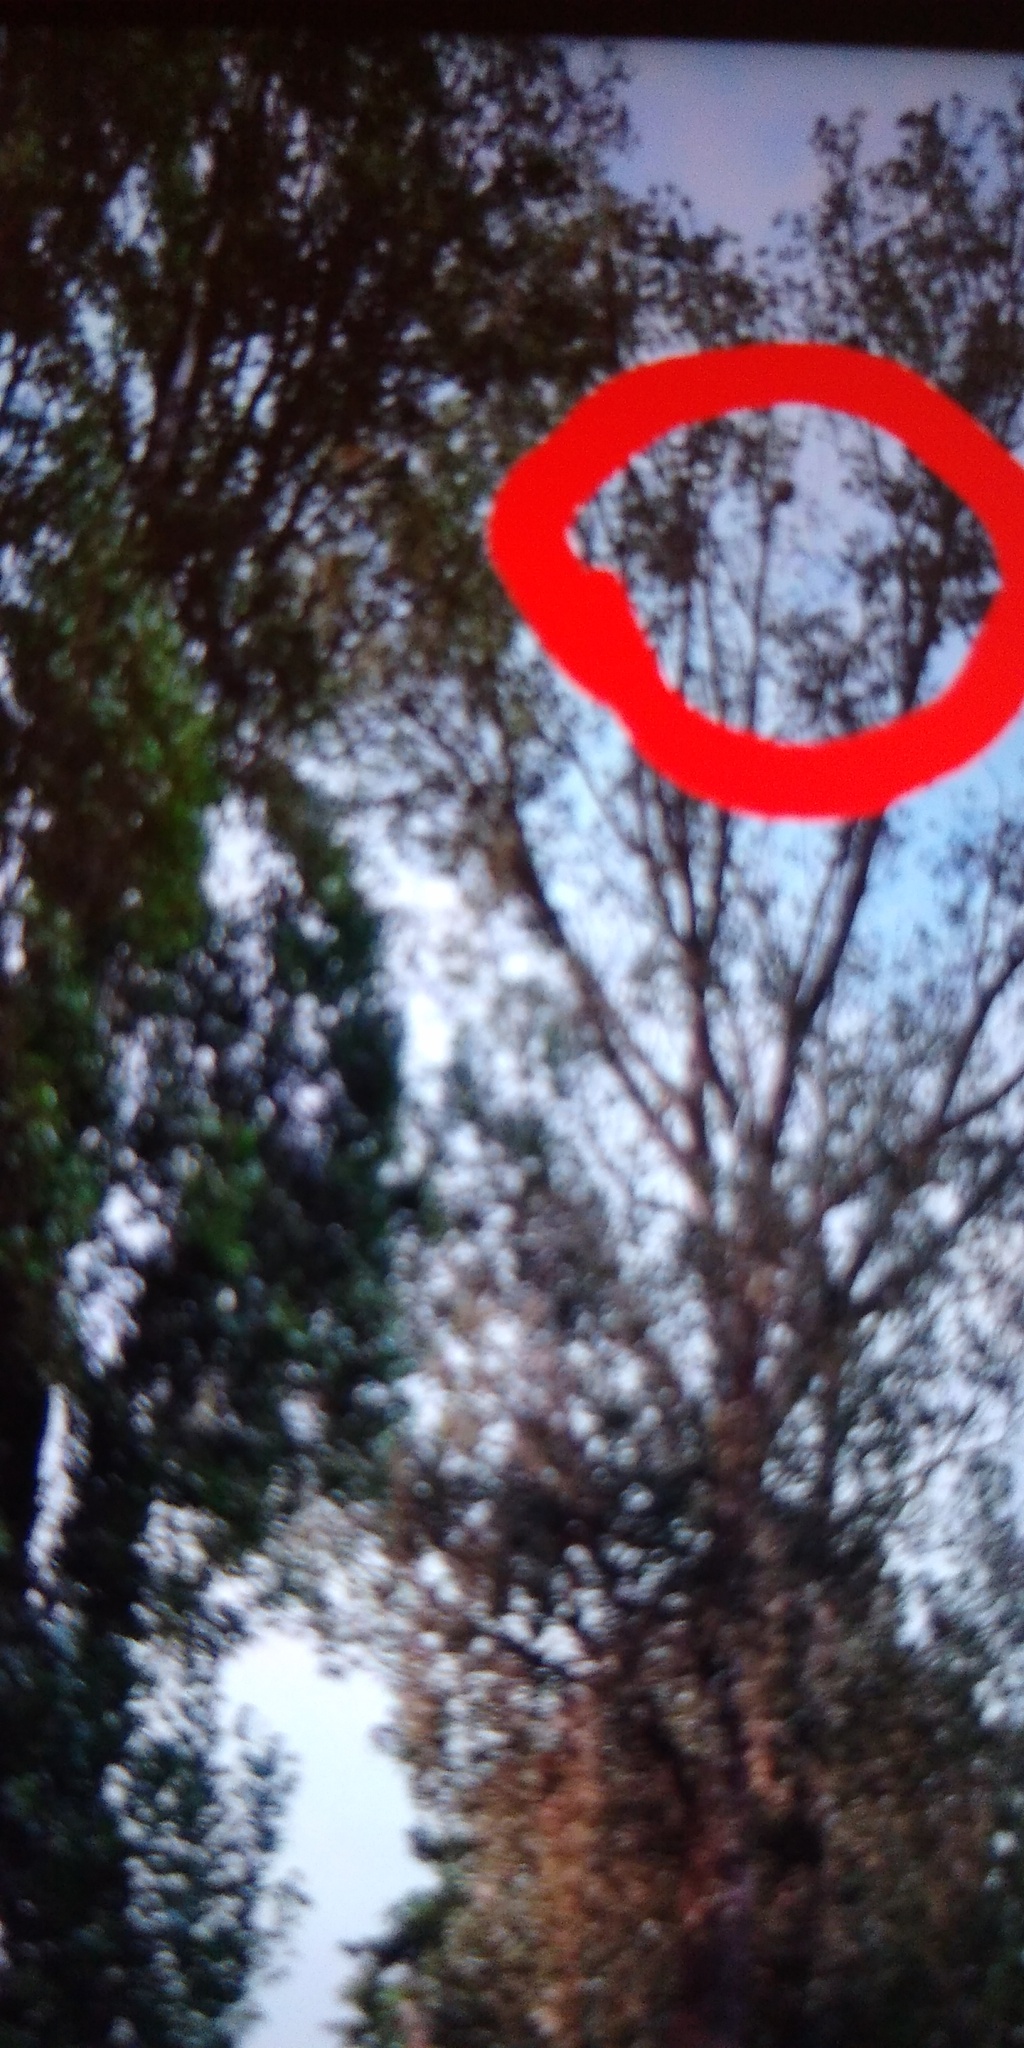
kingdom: Animalia
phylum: Arthropoda
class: Insecta
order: Hymenoptera
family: Vespidae
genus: Vespa
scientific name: Vespa velutina
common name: Asian hornet
